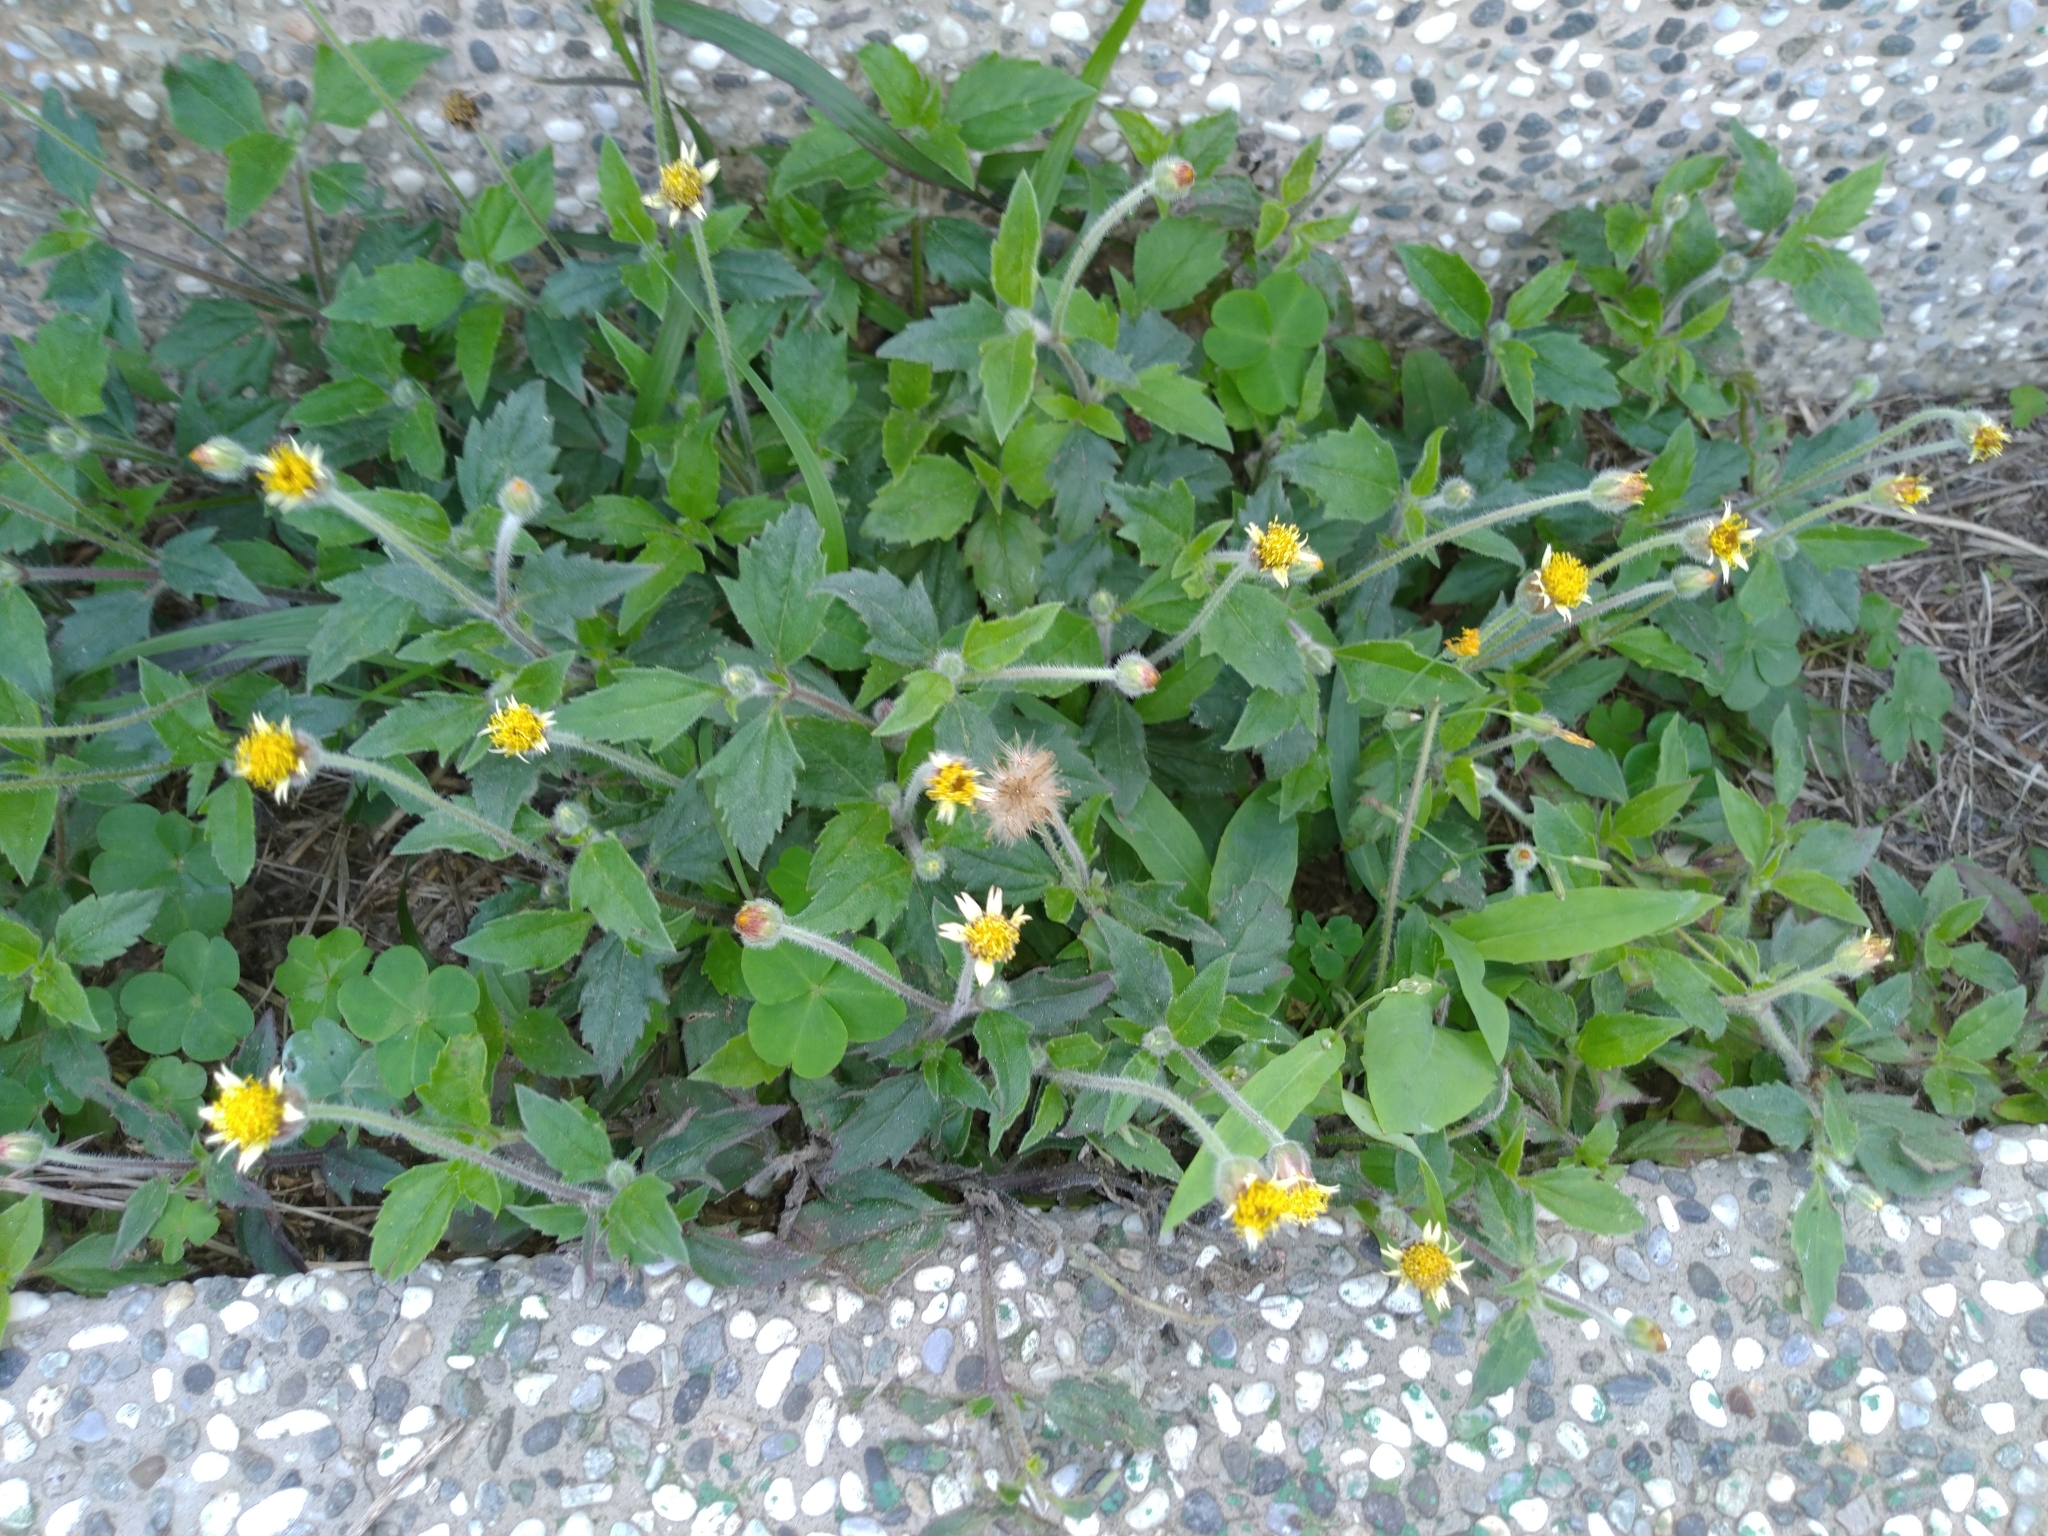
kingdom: Plantae
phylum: Tracheophyta
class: Magnoliopsida
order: Asterales
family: Asteraceae
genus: Tridax
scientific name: Tridax procumbens
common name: Coatbuttons
